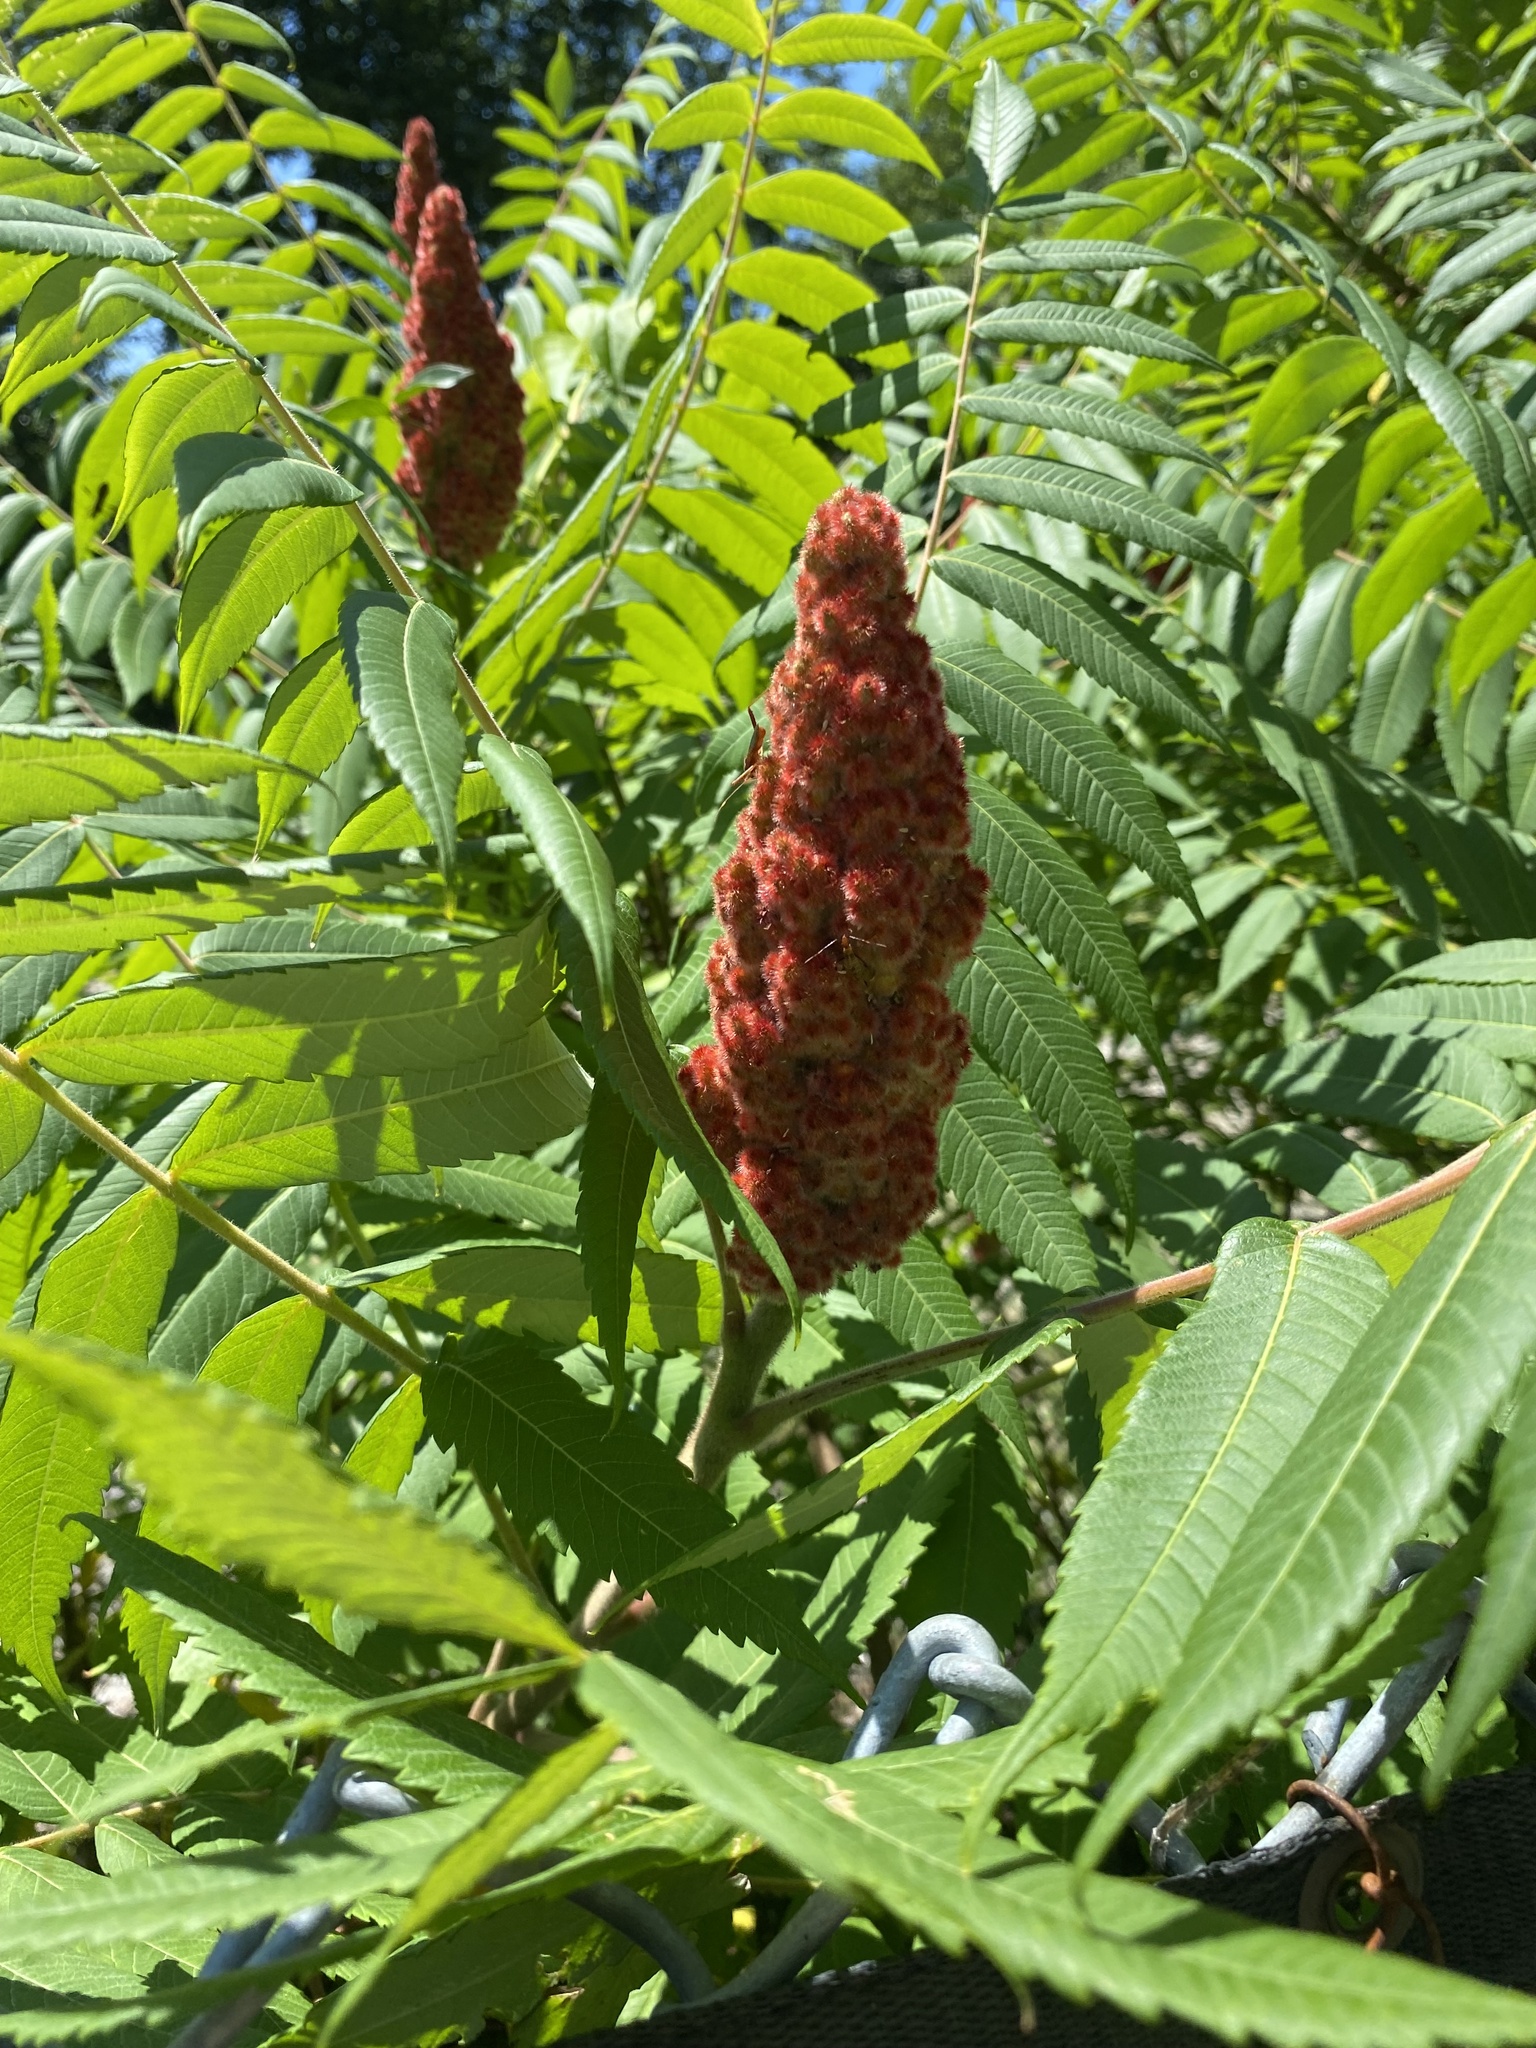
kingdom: Plantae
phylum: Tracheophyta
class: Magnoliopsida
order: Sapindales
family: Anacardiaceae
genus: Rhus
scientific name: Rhus typhina
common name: Staghorn sumac
